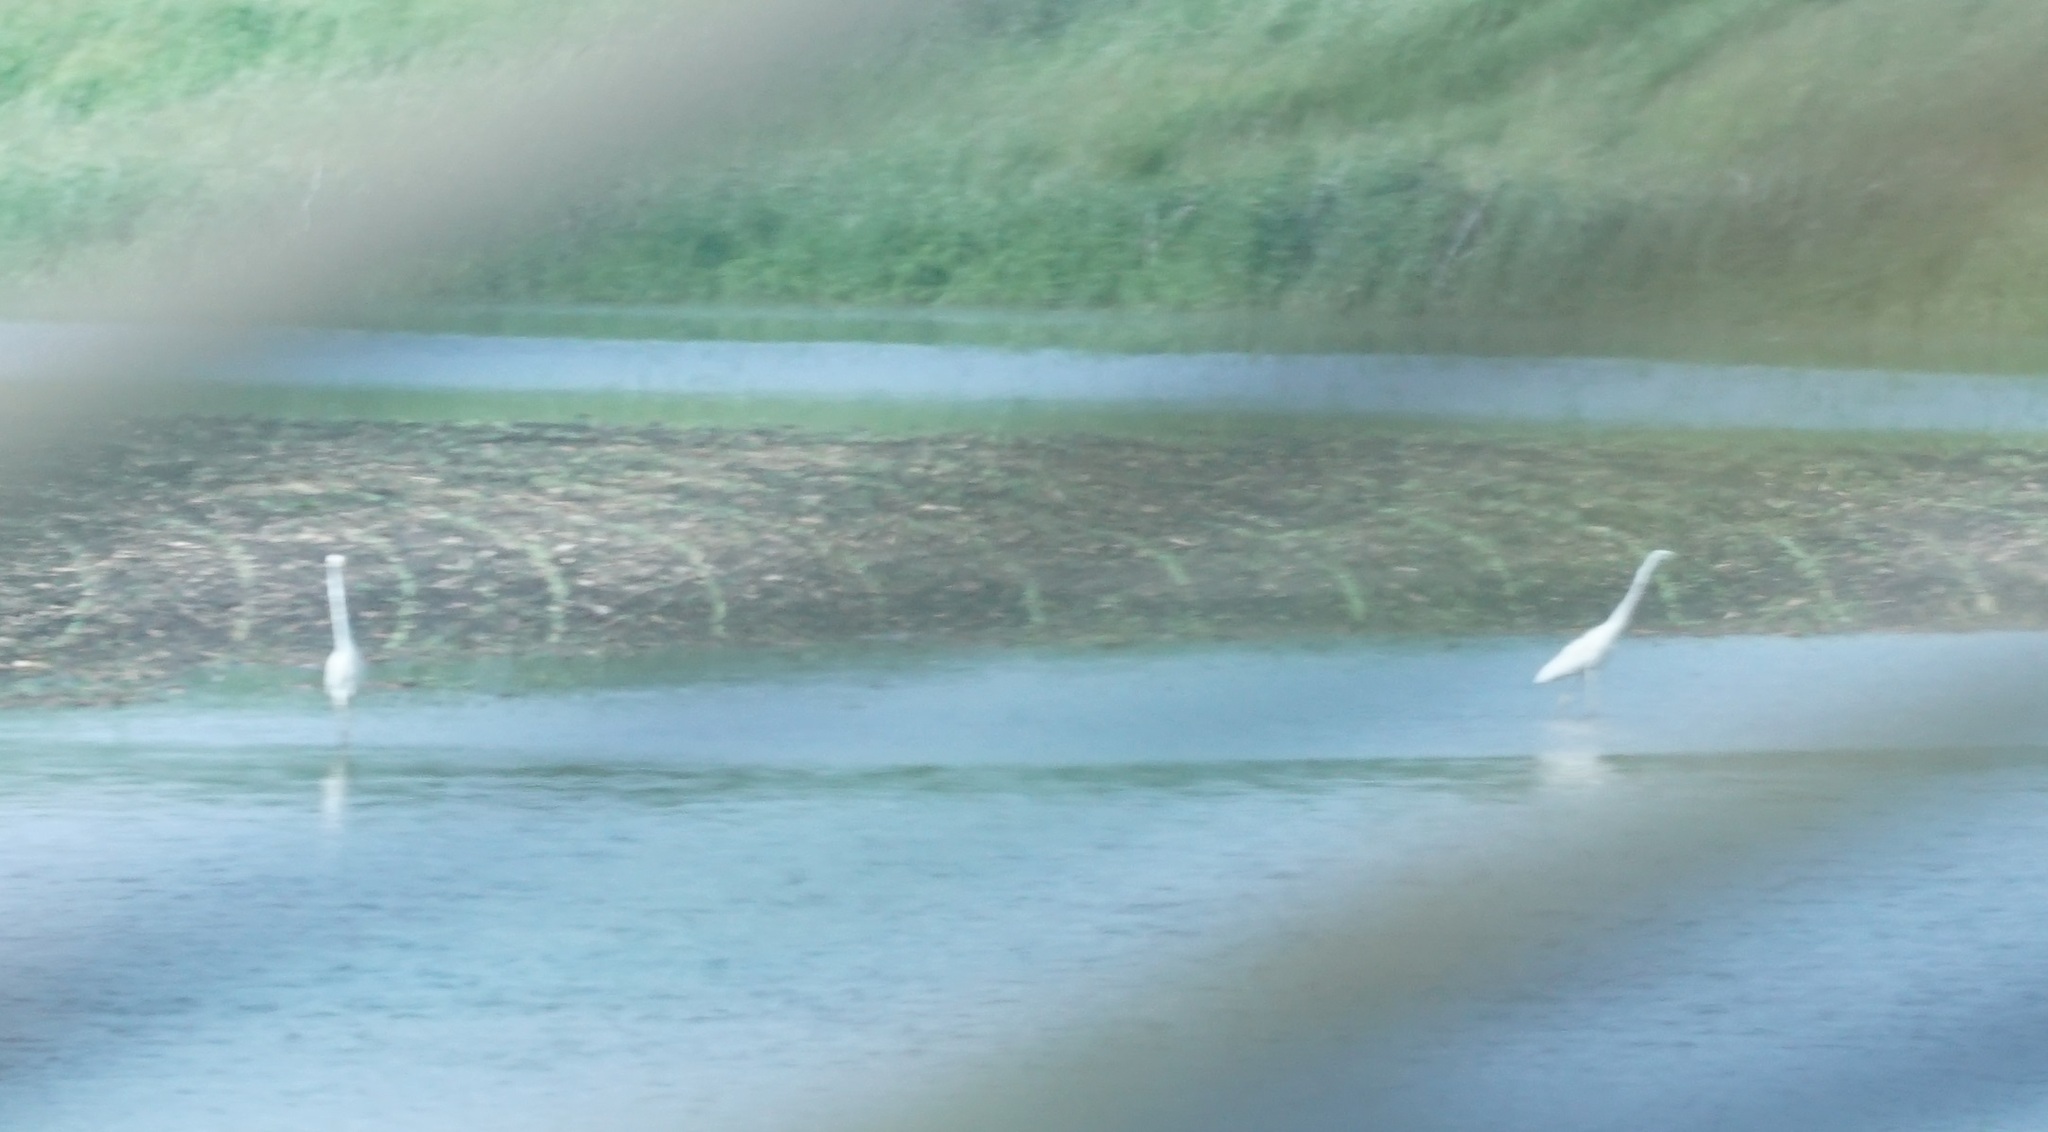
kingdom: Animalia
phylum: Chordata
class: Aves
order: Pelecaniformes
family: Ardeidae
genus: Ardea
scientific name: Ardea alba
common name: Great egret
